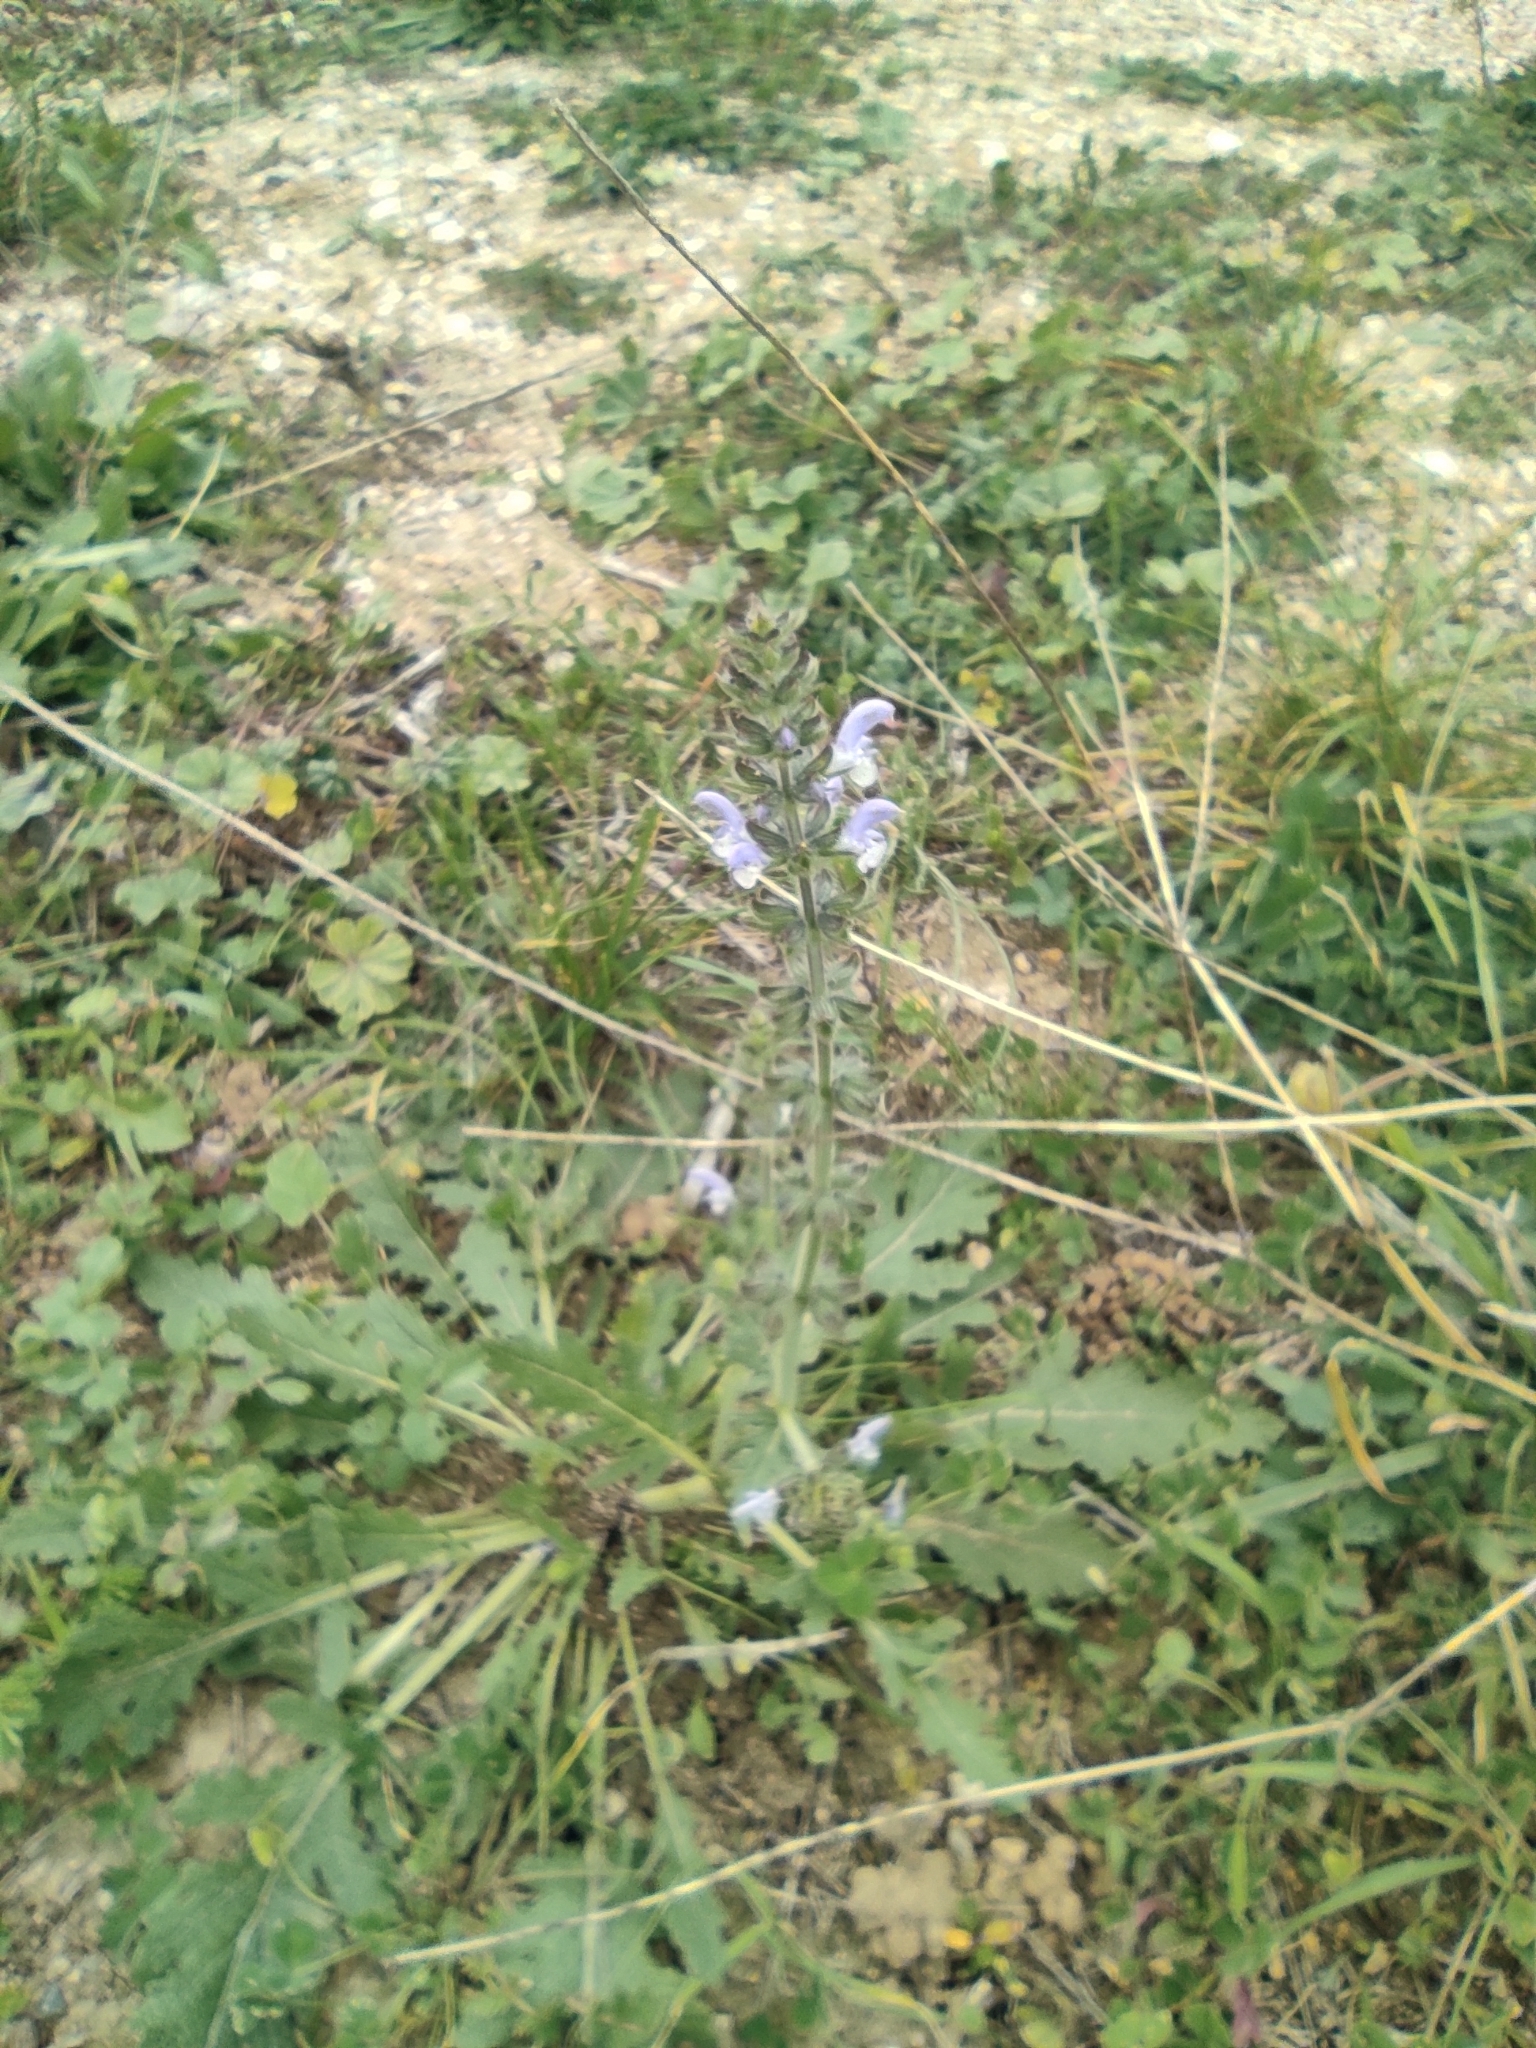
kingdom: Plantae
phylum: Tracheophyta
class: Magnoliopsida
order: Lamiales
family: Lamiaceae
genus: Salvia
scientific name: Salvia verbenaca
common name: Wild clary
